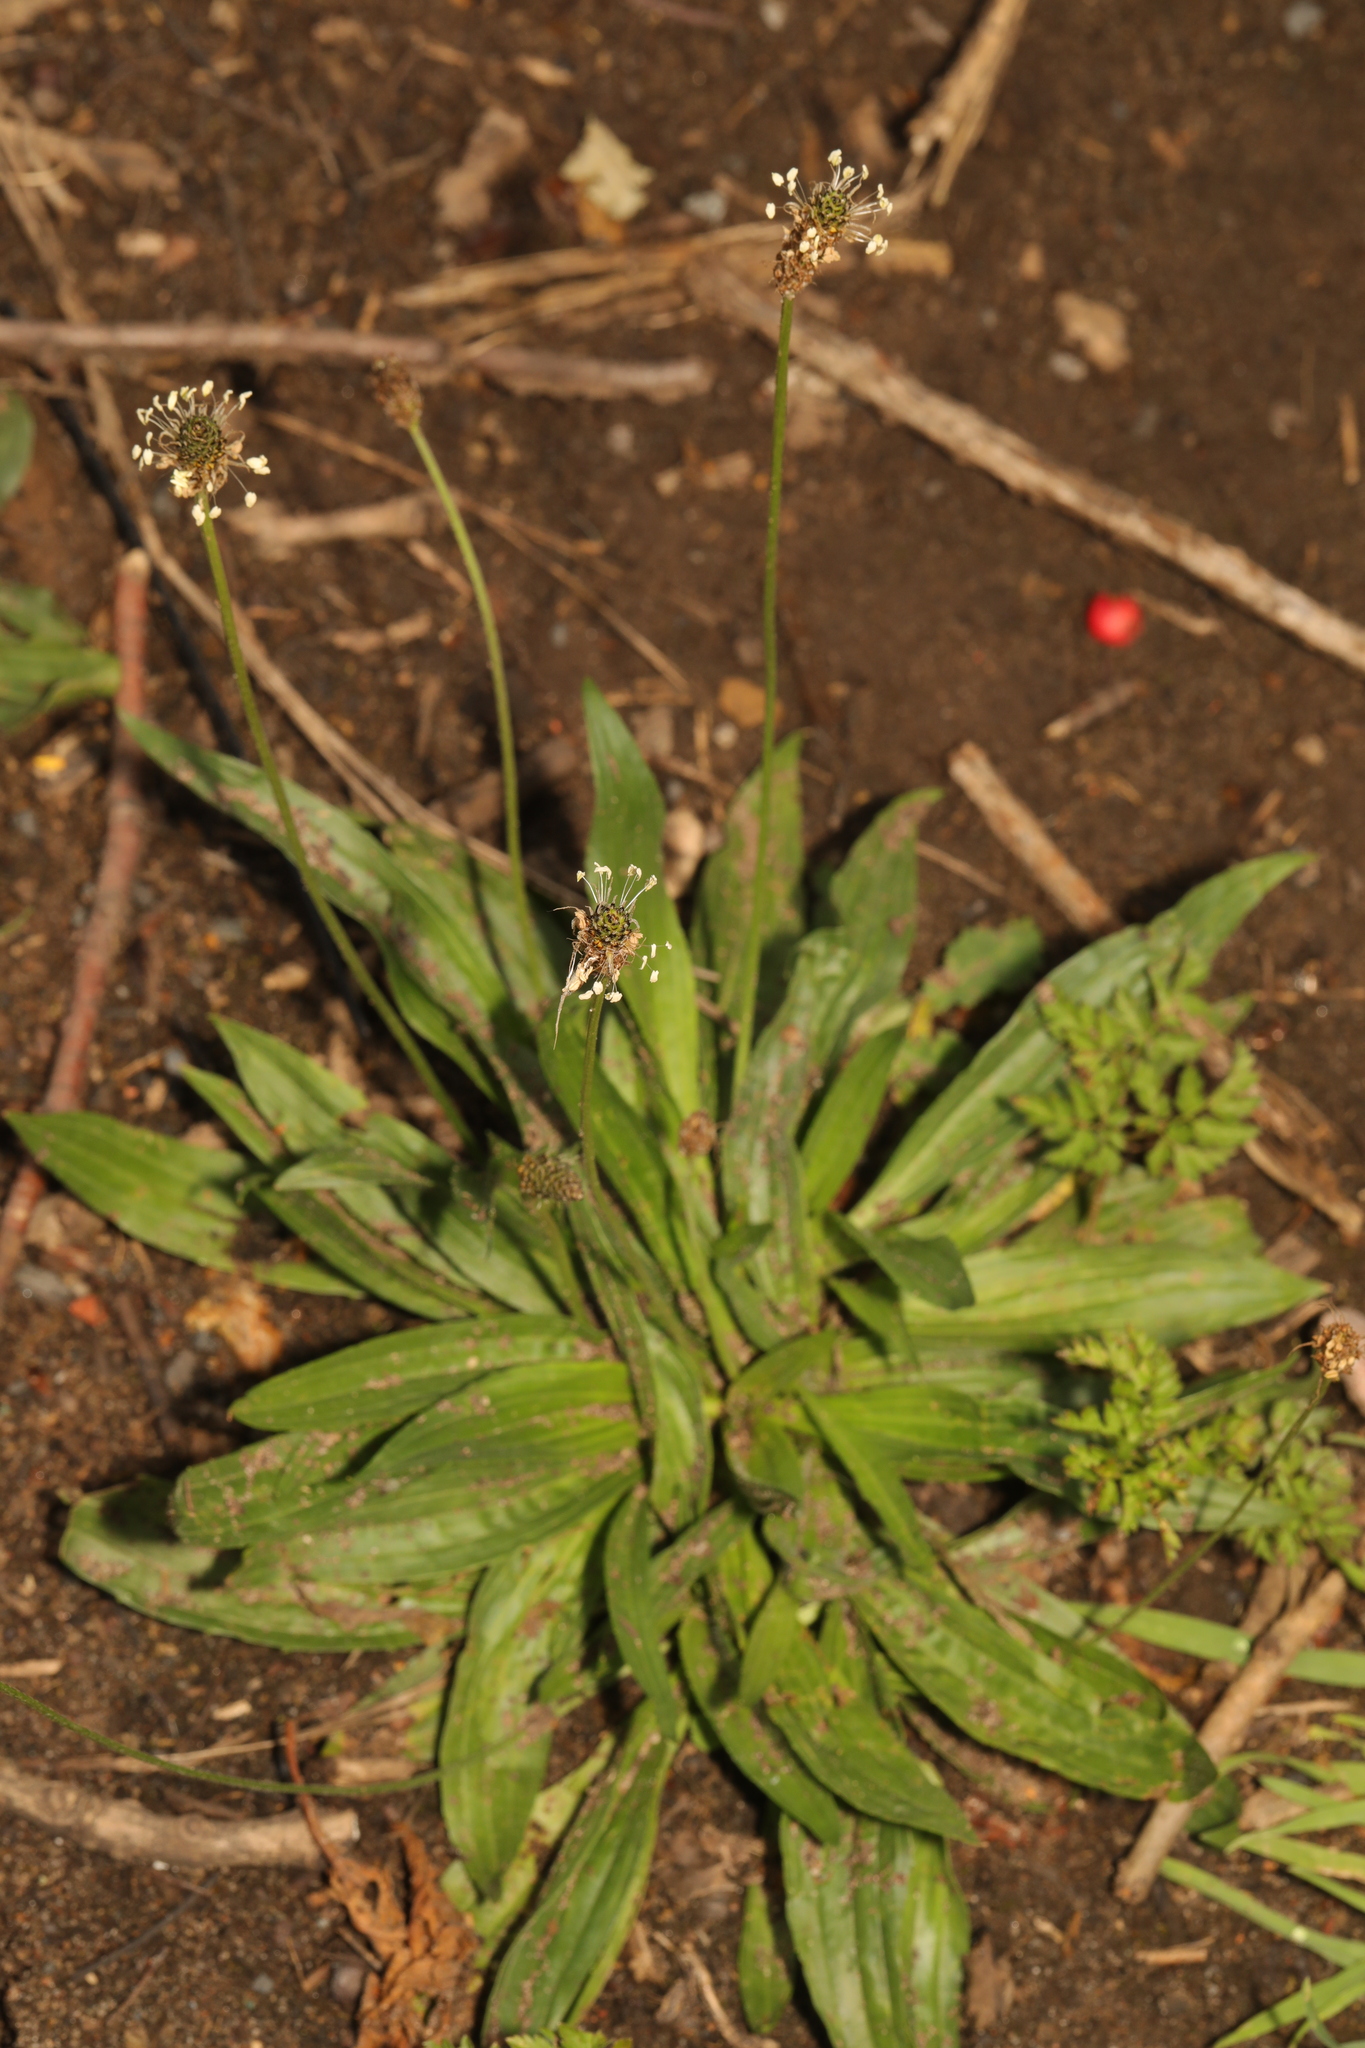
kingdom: Plantae
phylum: Tracheophyta
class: Magnoliopsida
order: Lamiales
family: Plantaginaceae
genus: Plantago
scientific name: Plantago lanceolata
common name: Ribwort plantain
